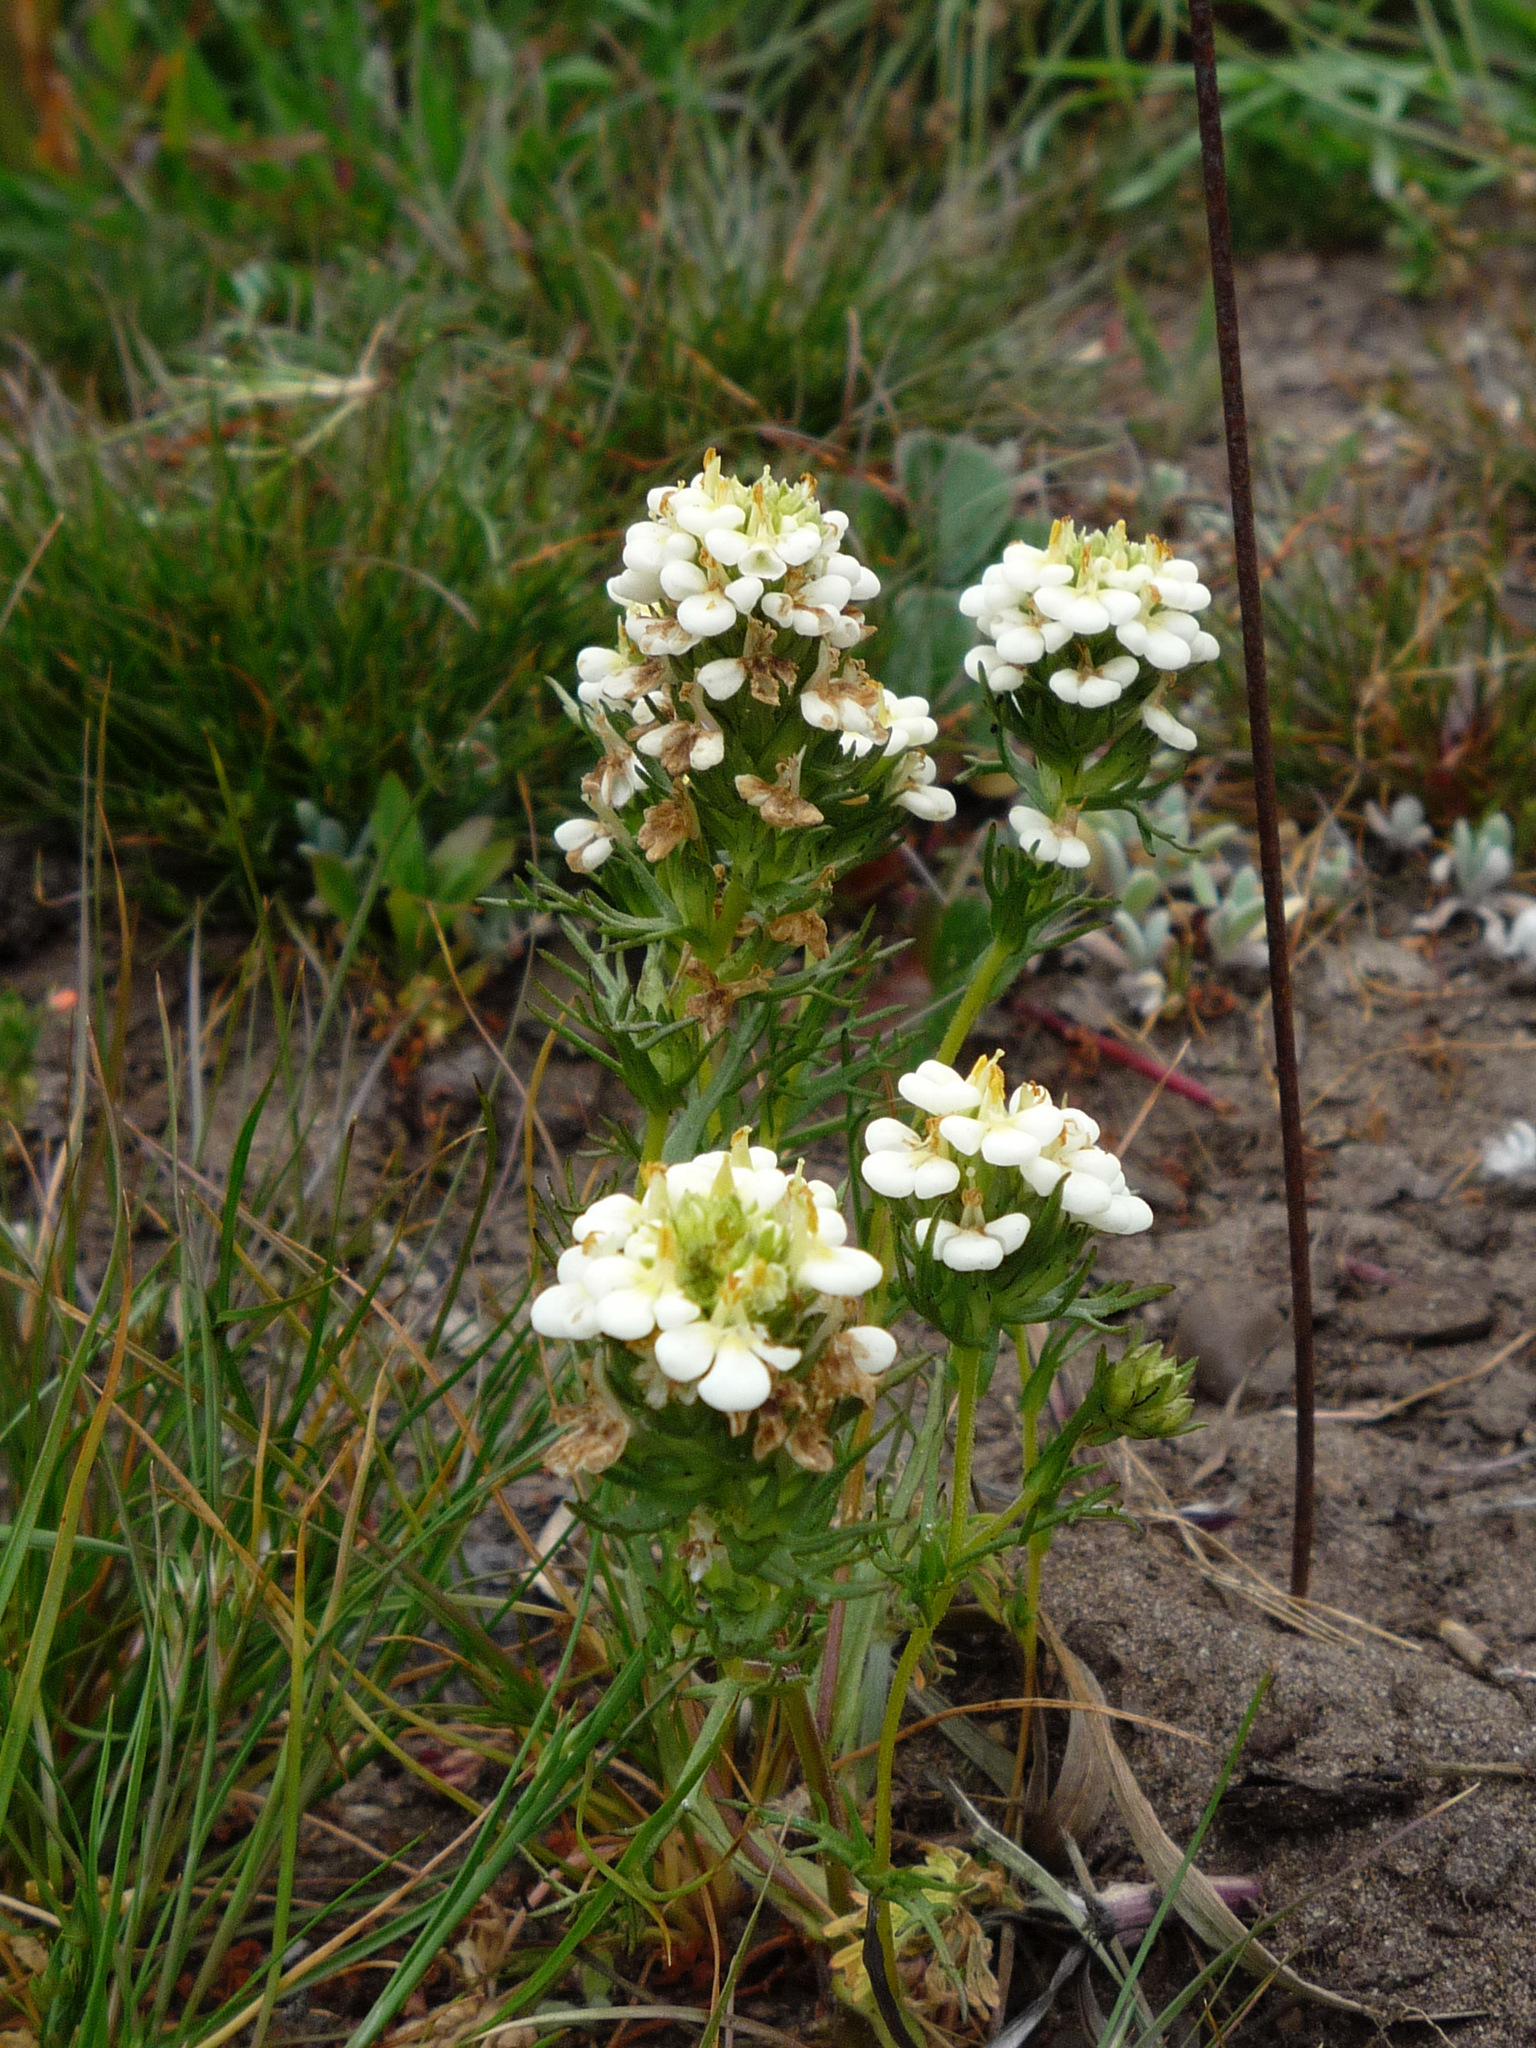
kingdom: Plantae
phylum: Tracheophyta
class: Magnoliopsida
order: Lamiales
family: Orobanchaceae
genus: Triphysaria
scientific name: Triphysaria floribunda
